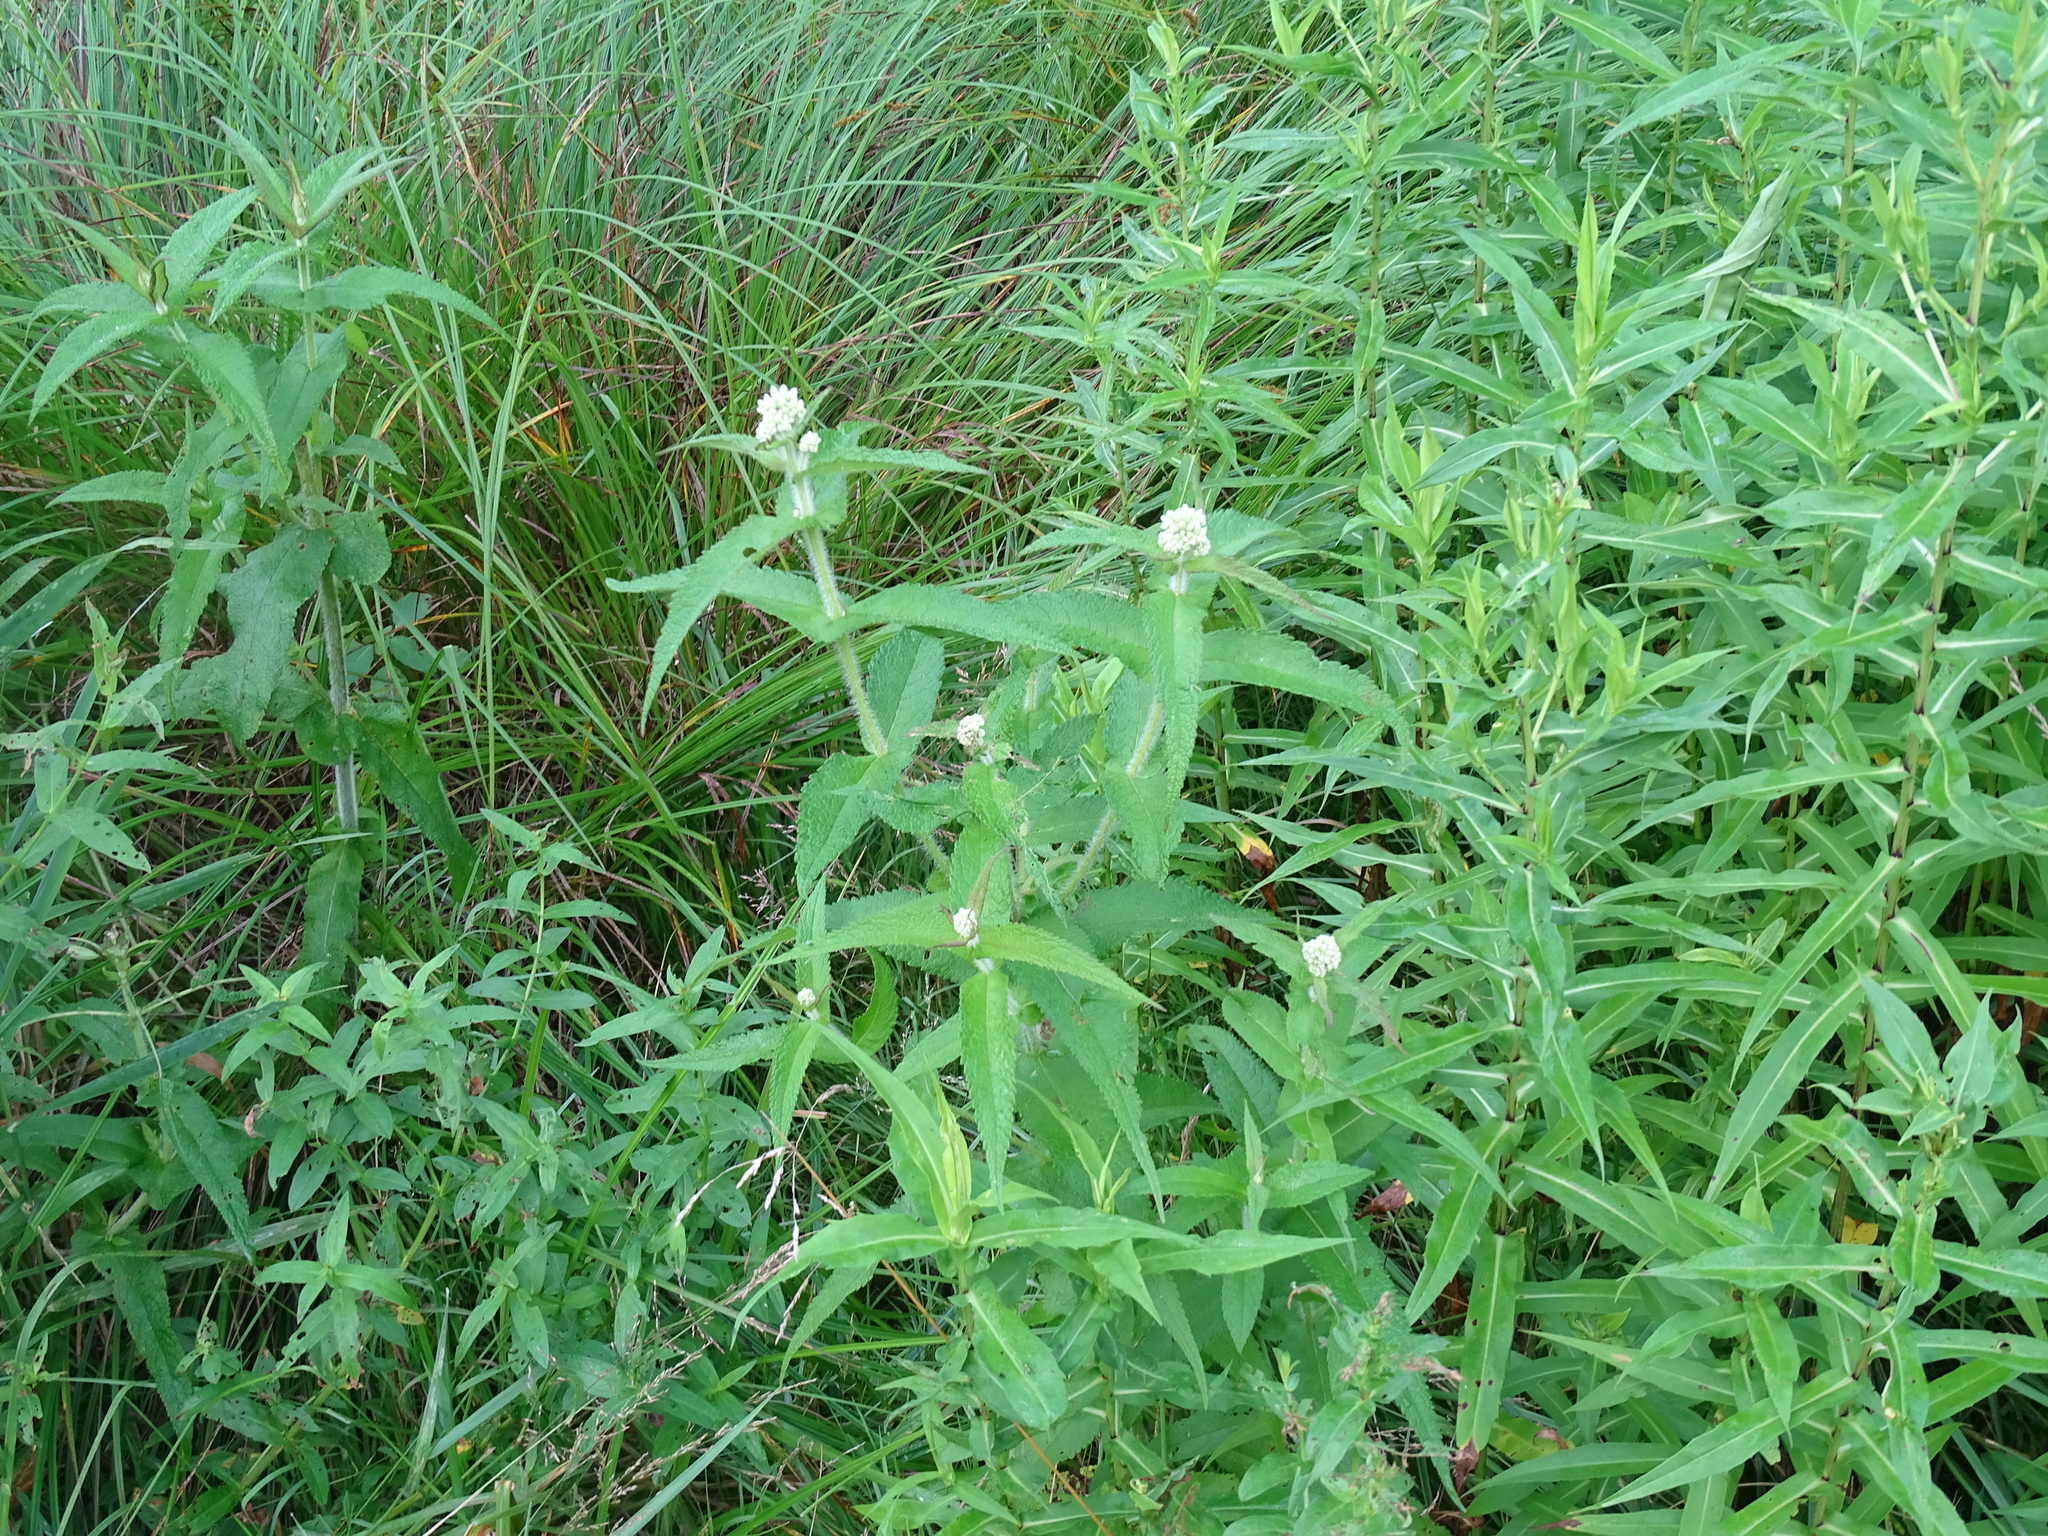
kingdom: Plantae
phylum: Tracheophyta
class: Magnoliopsida
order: Asterales
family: Asteraceae
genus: Eupatorium
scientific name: Eupatorium perfoliatum
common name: Boneset
